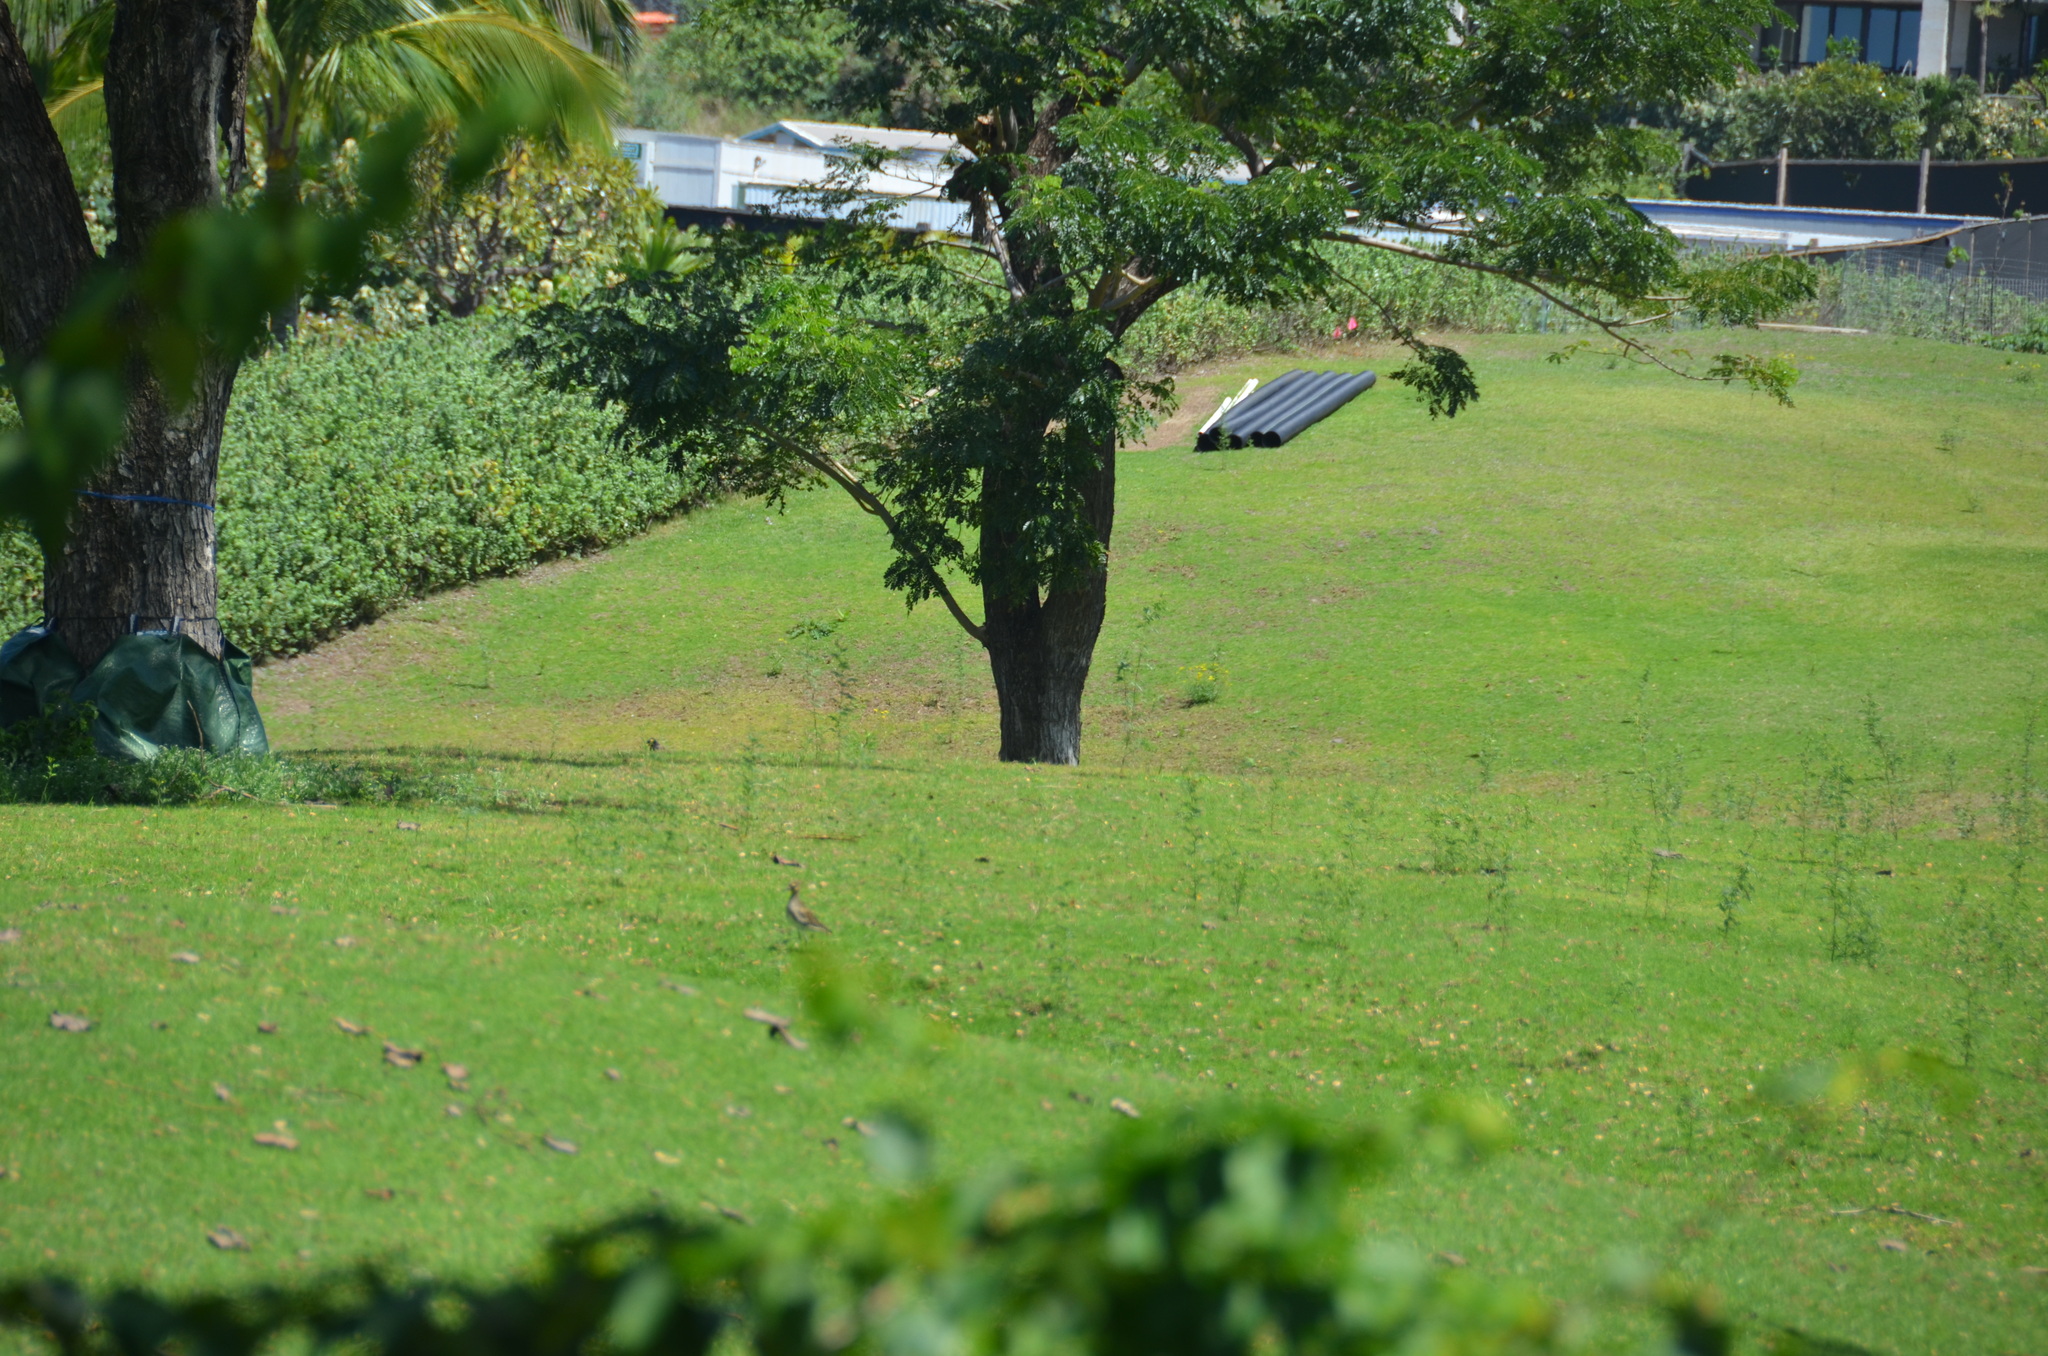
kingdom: Animalia
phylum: Chordata
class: Aves
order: Charadriiformes
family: Charadriidae
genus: Pluvialis
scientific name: Pluvialis fulva
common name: Pacific golden plover
